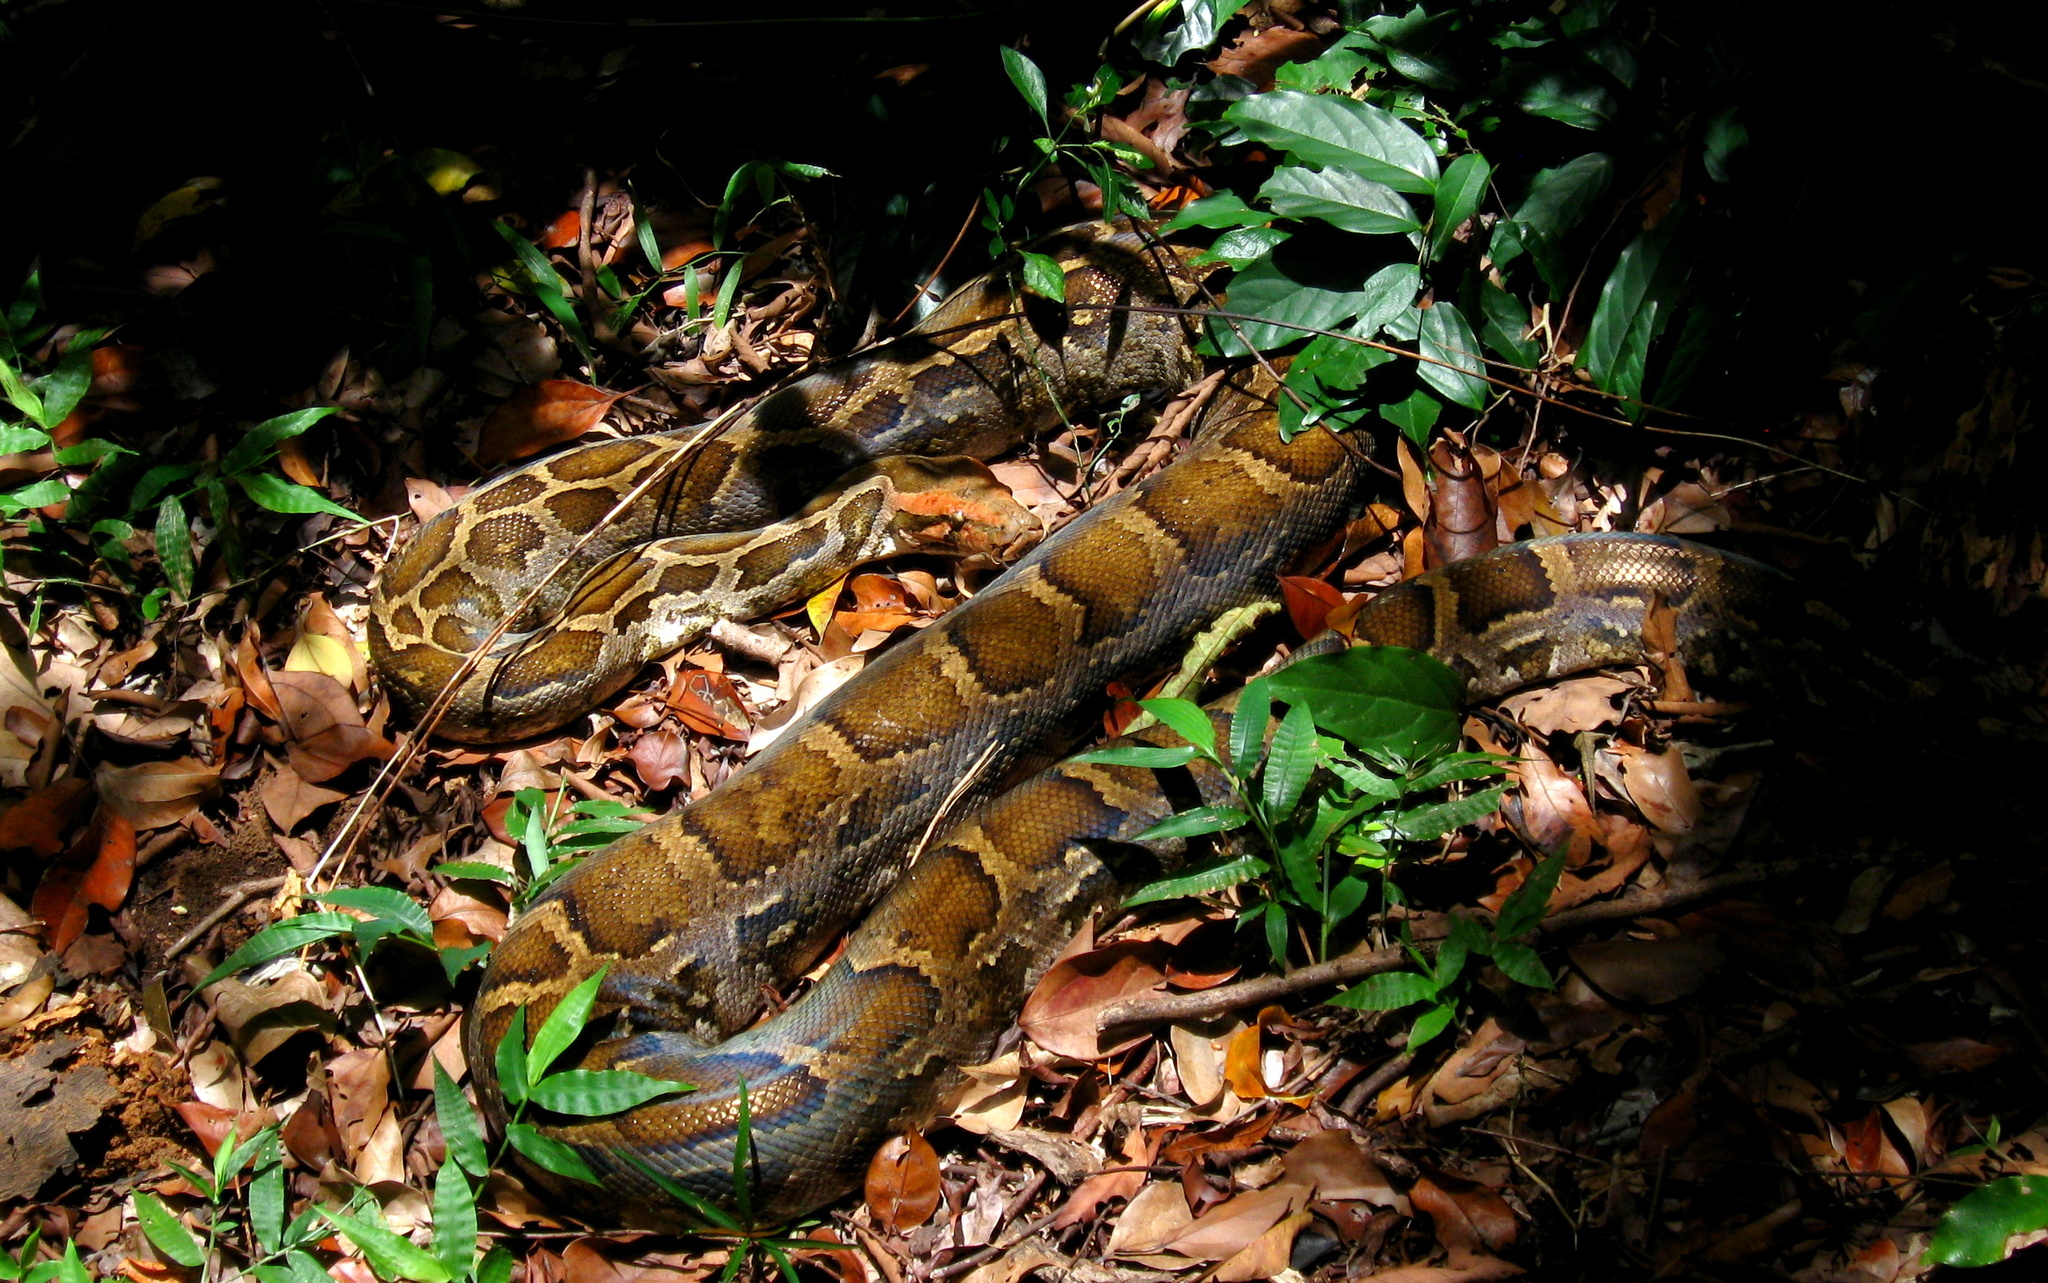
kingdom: Animalia
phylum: Chordata
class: Squamata
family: Pythonidae
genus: Python
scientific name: Python molurus
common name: Indian rock python
